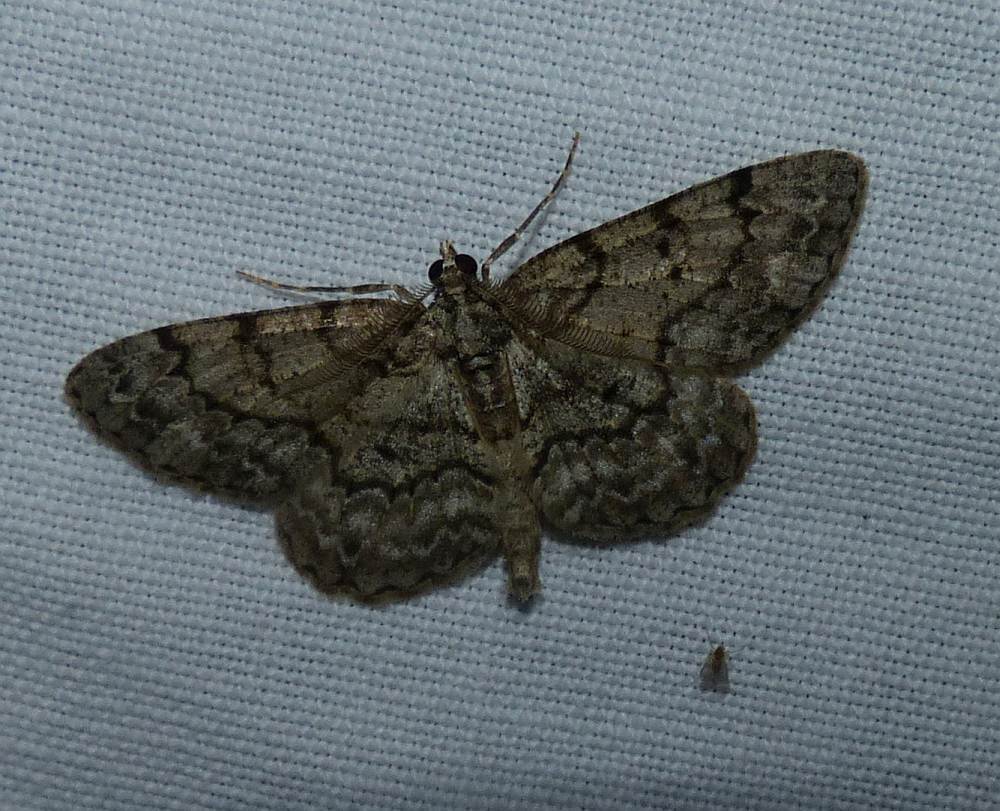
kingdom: Animalia
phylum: Arthropoda
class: Insecta
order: Lepidoptera
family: Geometridae
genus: Protoboarmia
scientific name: Protoboarmia porcelaria
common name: Porcelain gray
